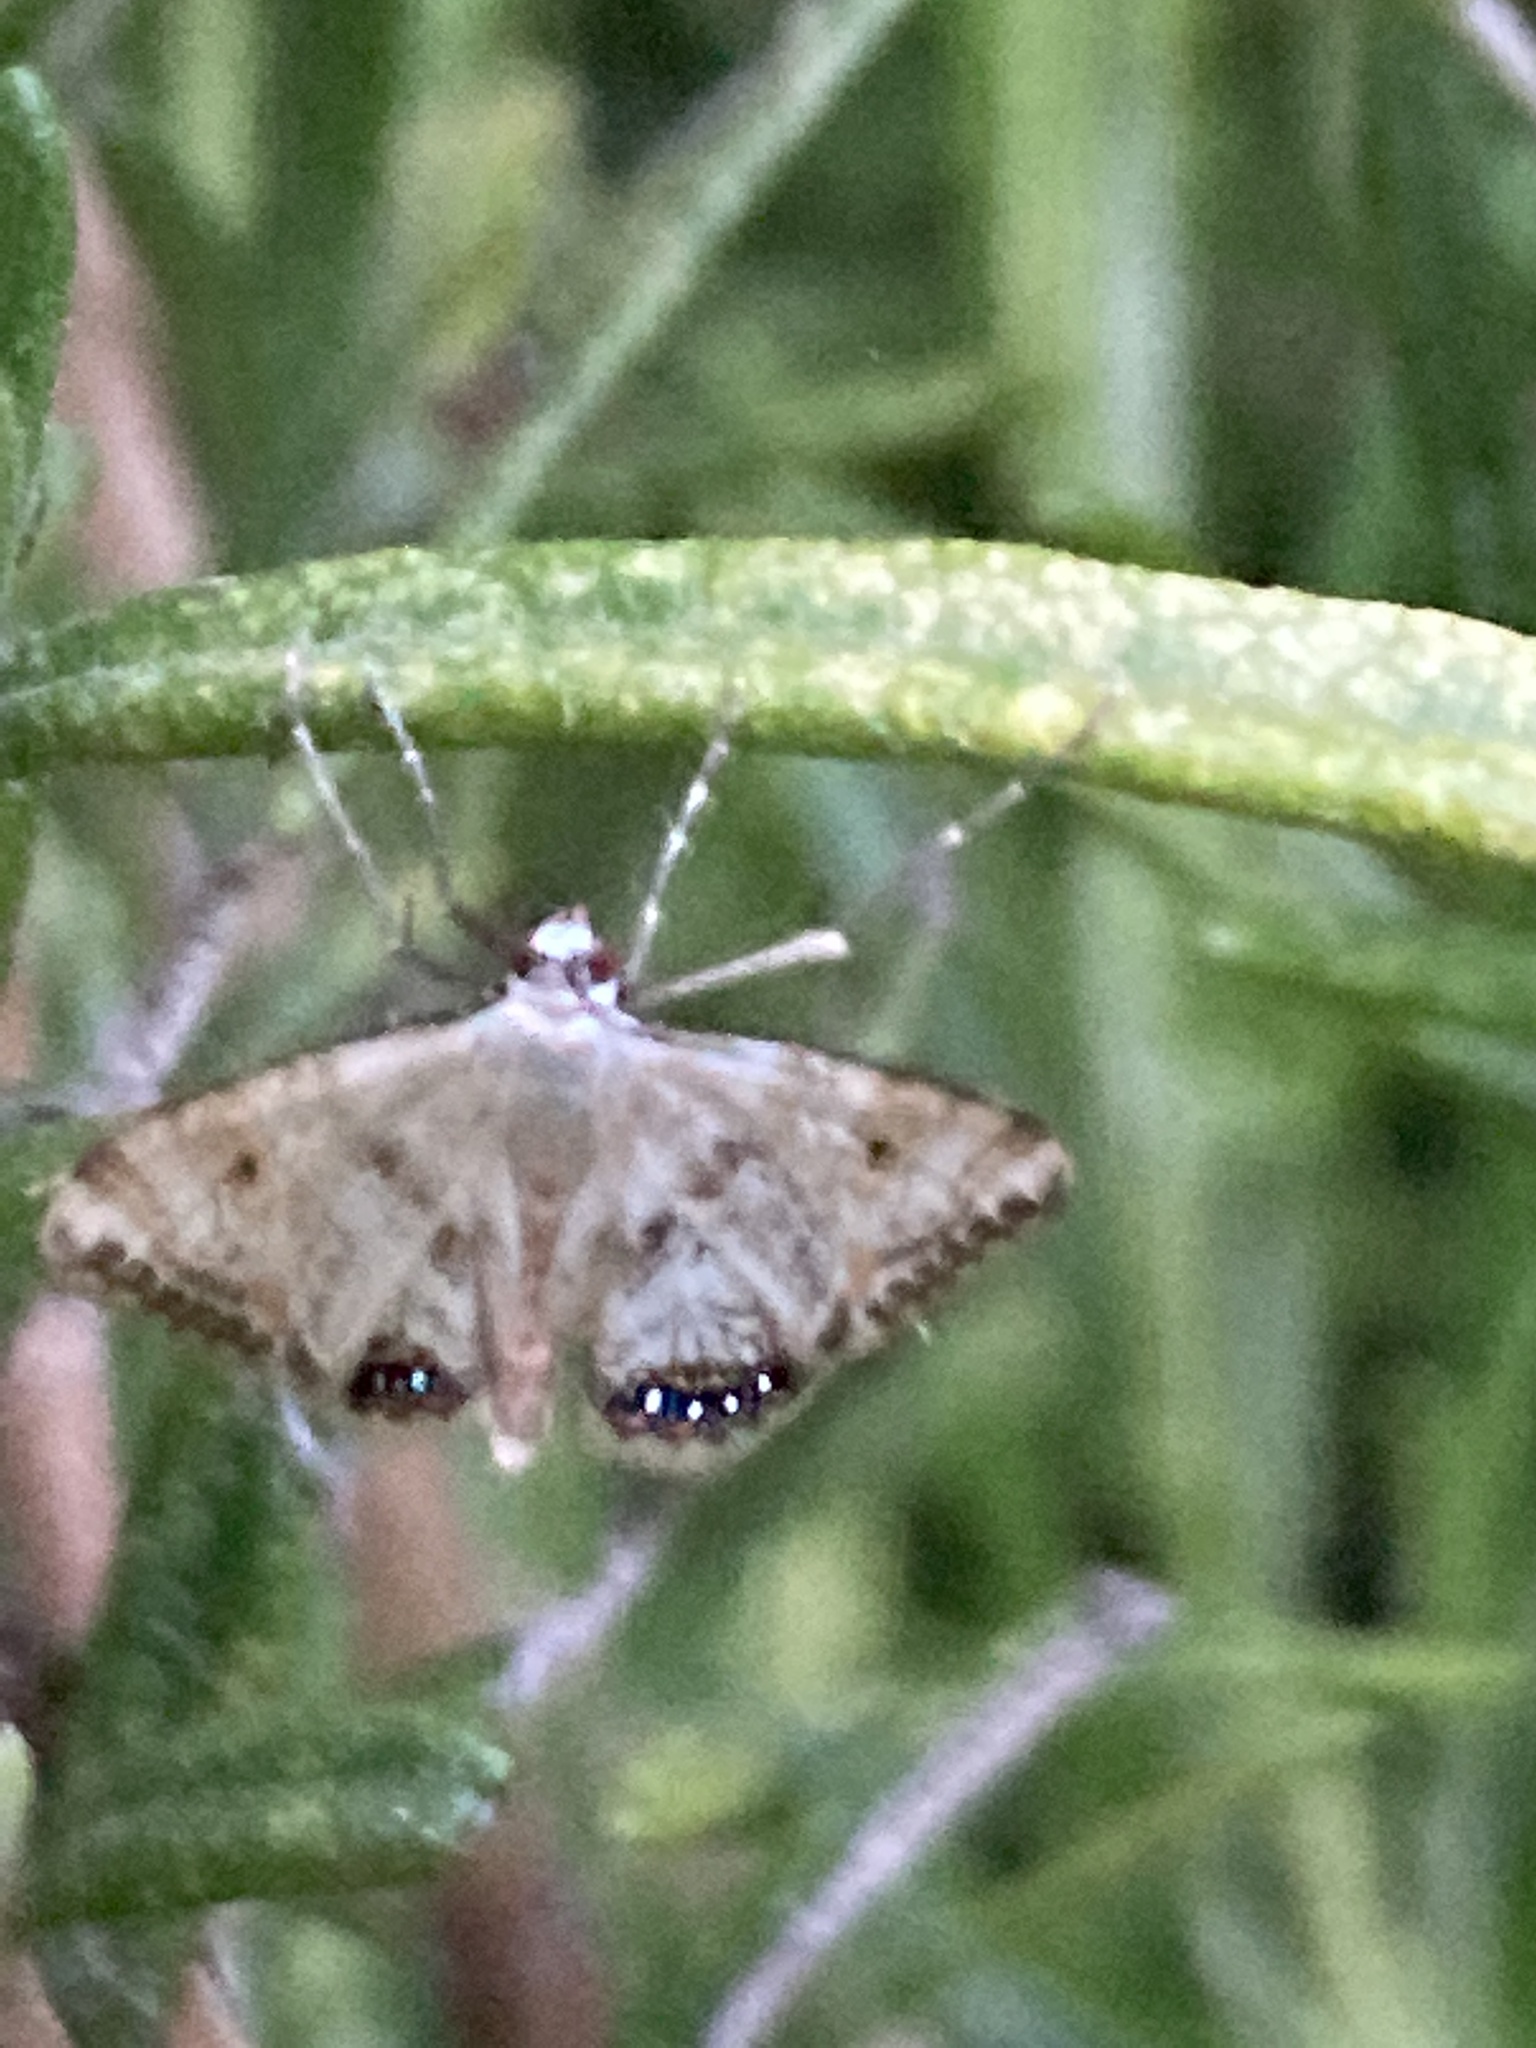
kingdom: Animalia
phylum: Arthropoda
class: Insecta
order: Lepidoptera
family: Crambidae
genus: Cataclysta
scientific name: Cataclysta lemnata
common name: Small china-mark
